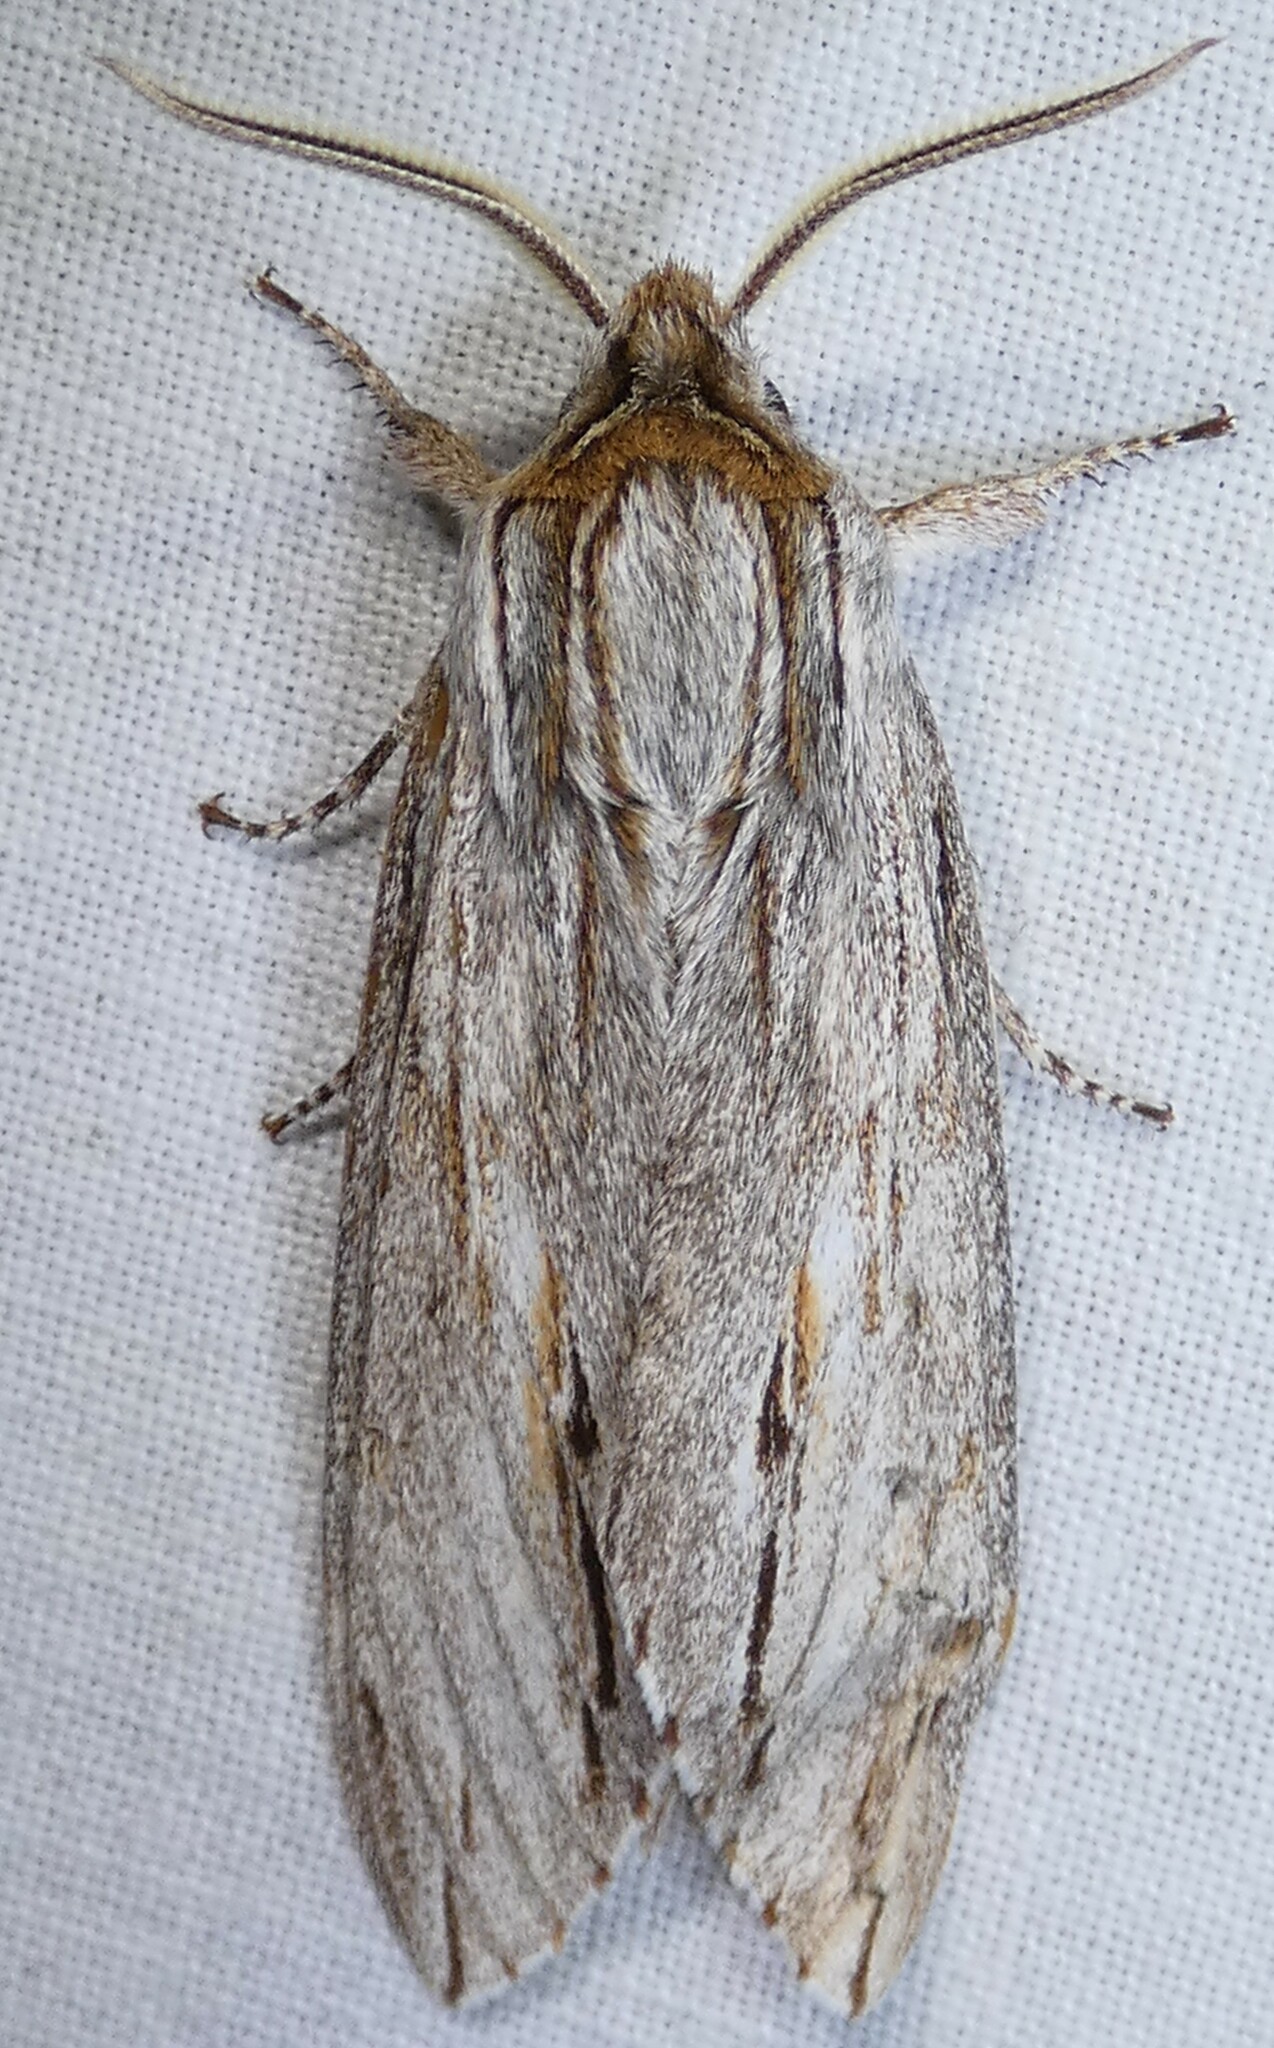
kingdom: Animalia
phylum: Arthropoda
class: Insecta
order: Lepidoptera
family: Sphingidae
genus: Isoparce
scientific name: Isoparce cupressi
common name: Cypress sphinx
